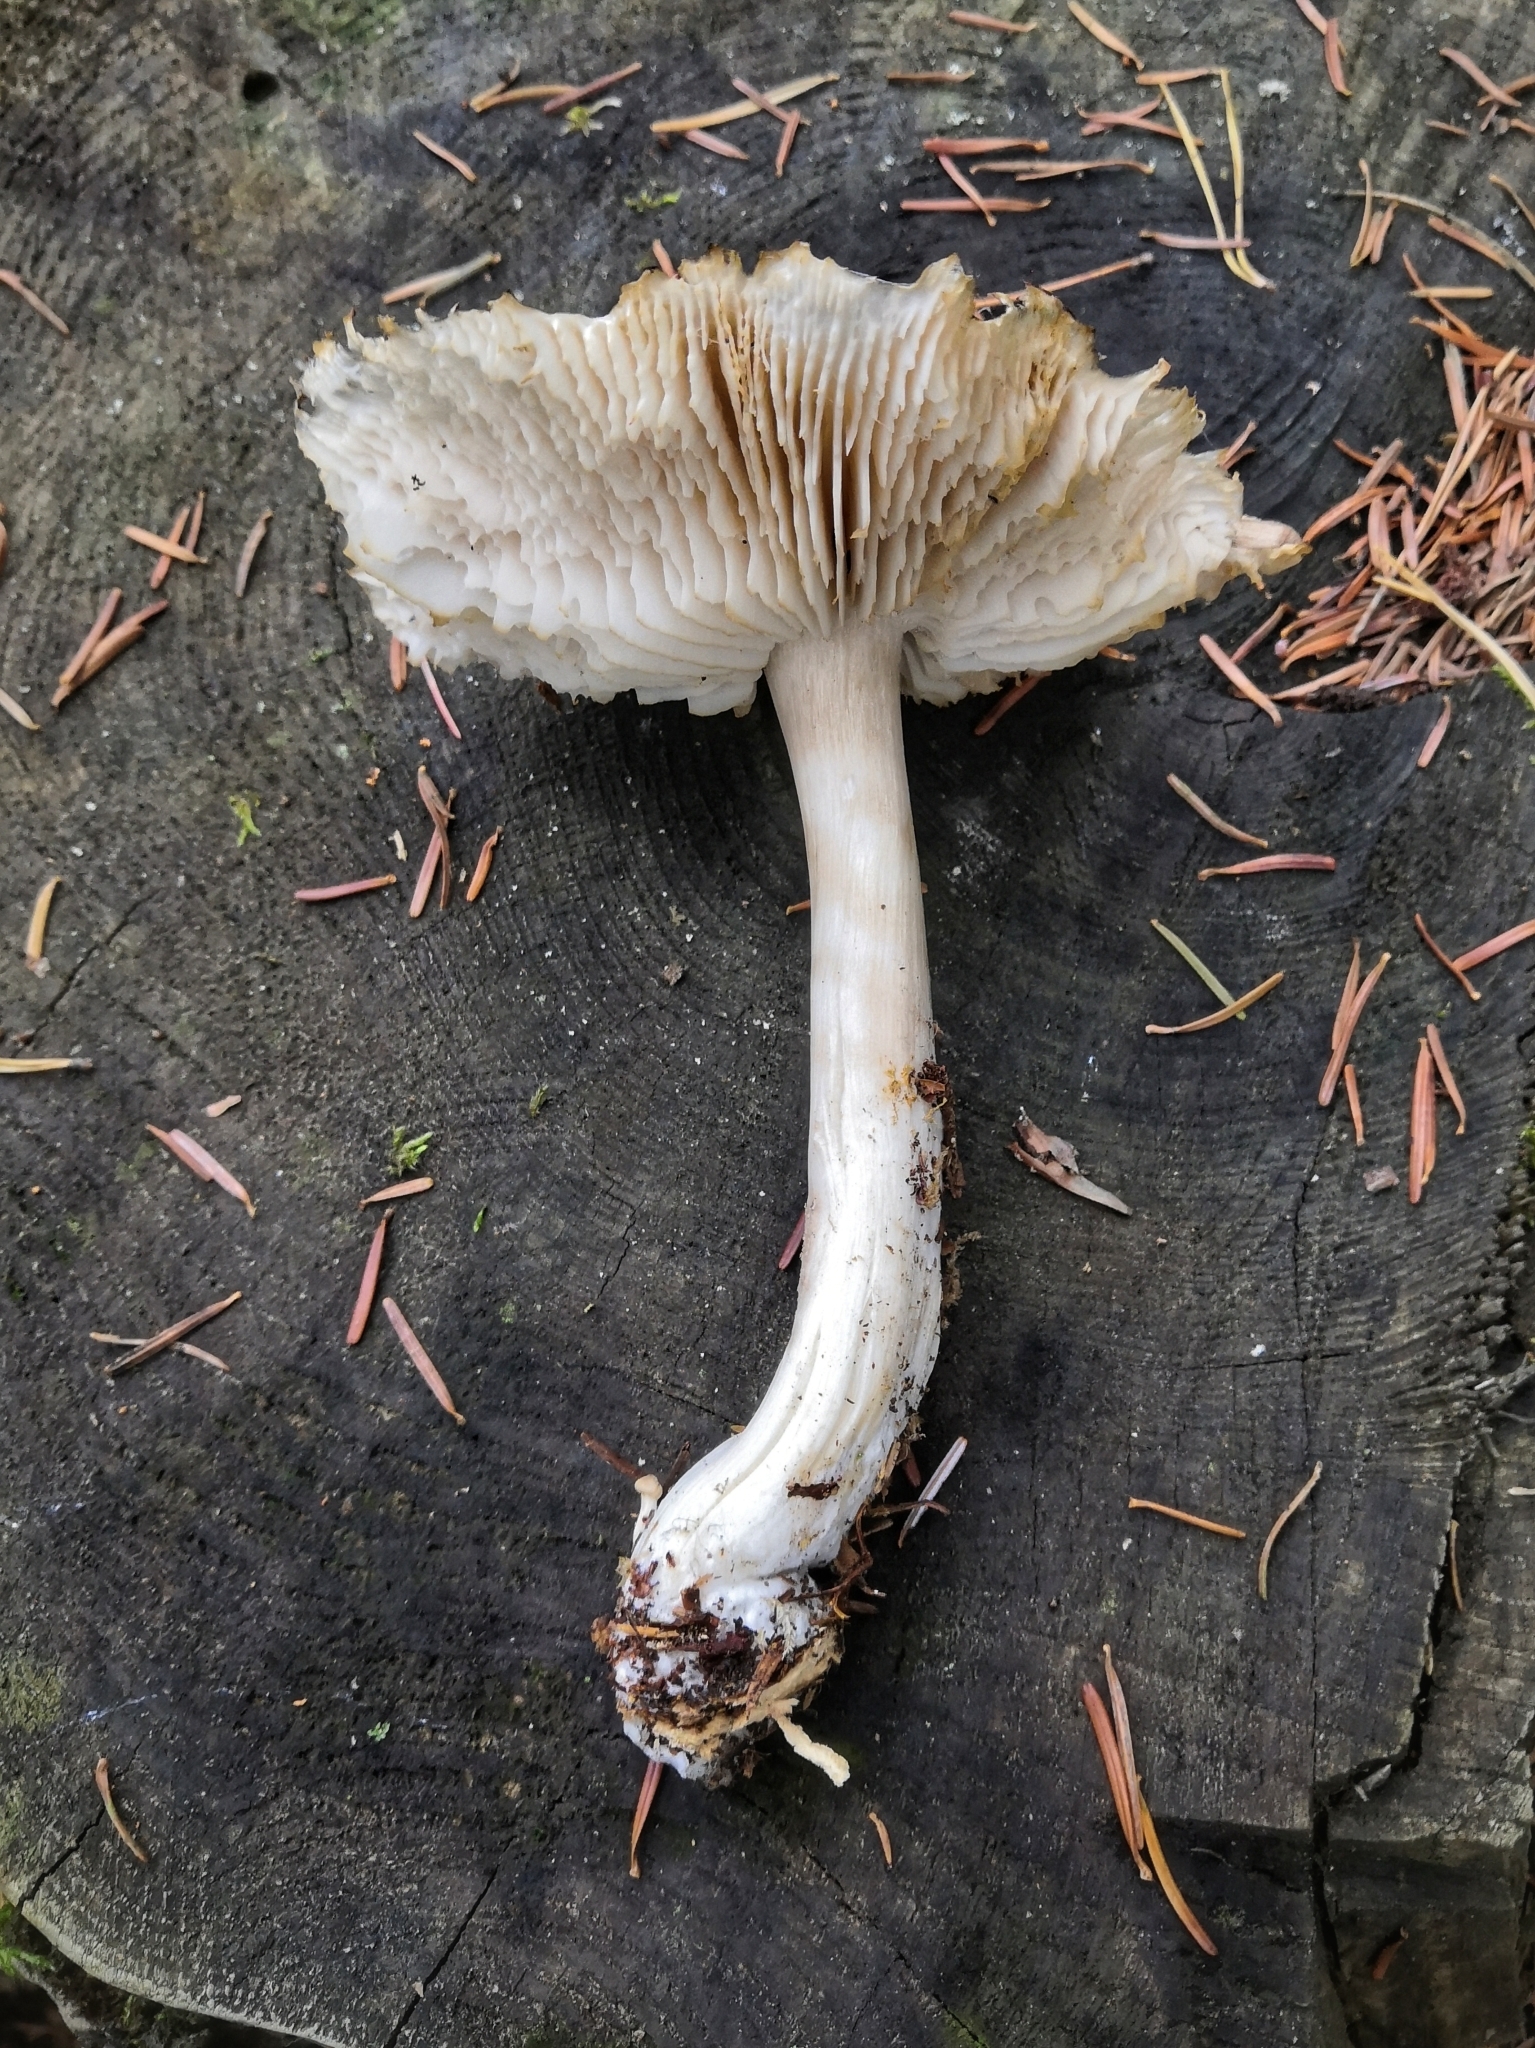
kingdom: Fungi
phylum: Basidiomycota
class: Agaricomycetes
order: Agaricales
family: Tricholomataceae
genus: Megacollybia
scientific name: Megacollybia platyphylla
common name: Whitelaced shank
